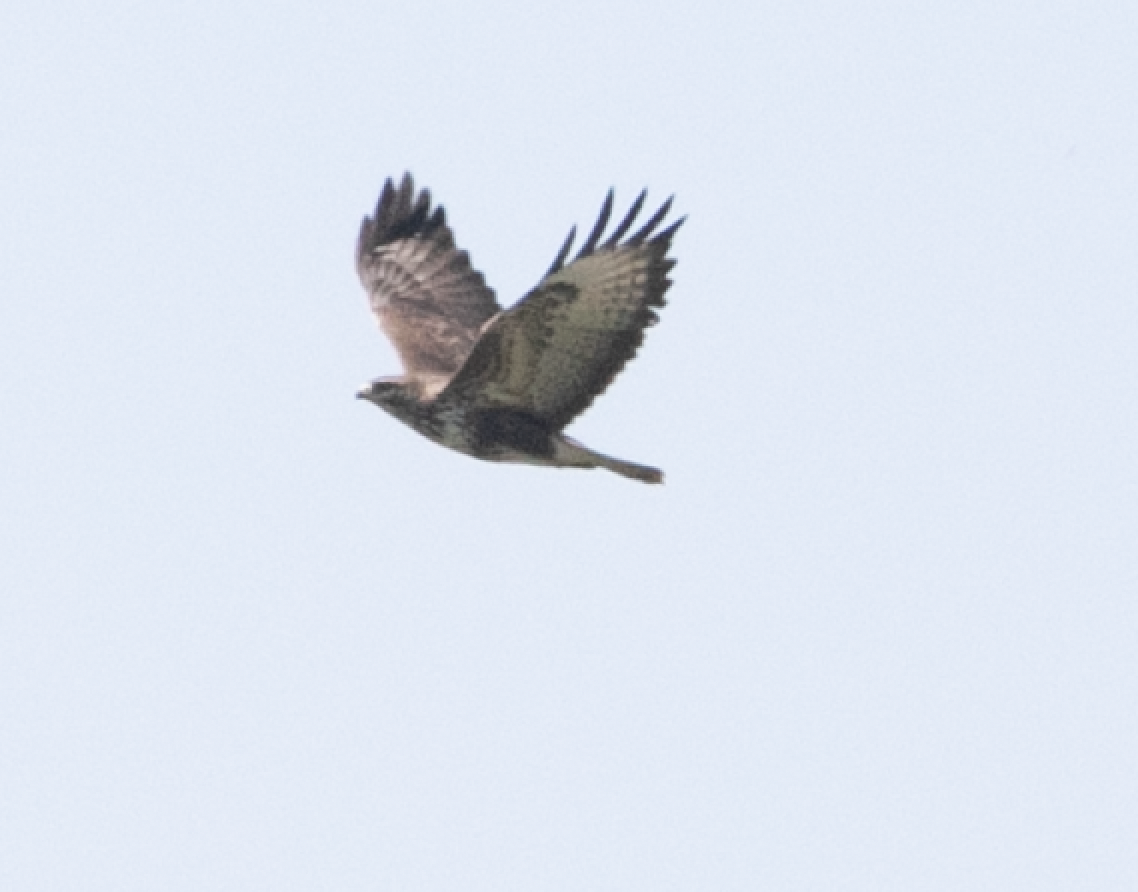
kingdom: Animalia
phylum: Chordata
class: Aves
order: Accipitriformes
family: Accipitridae
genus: Buteo
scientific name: Buteo buteo
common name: Common buzzard
